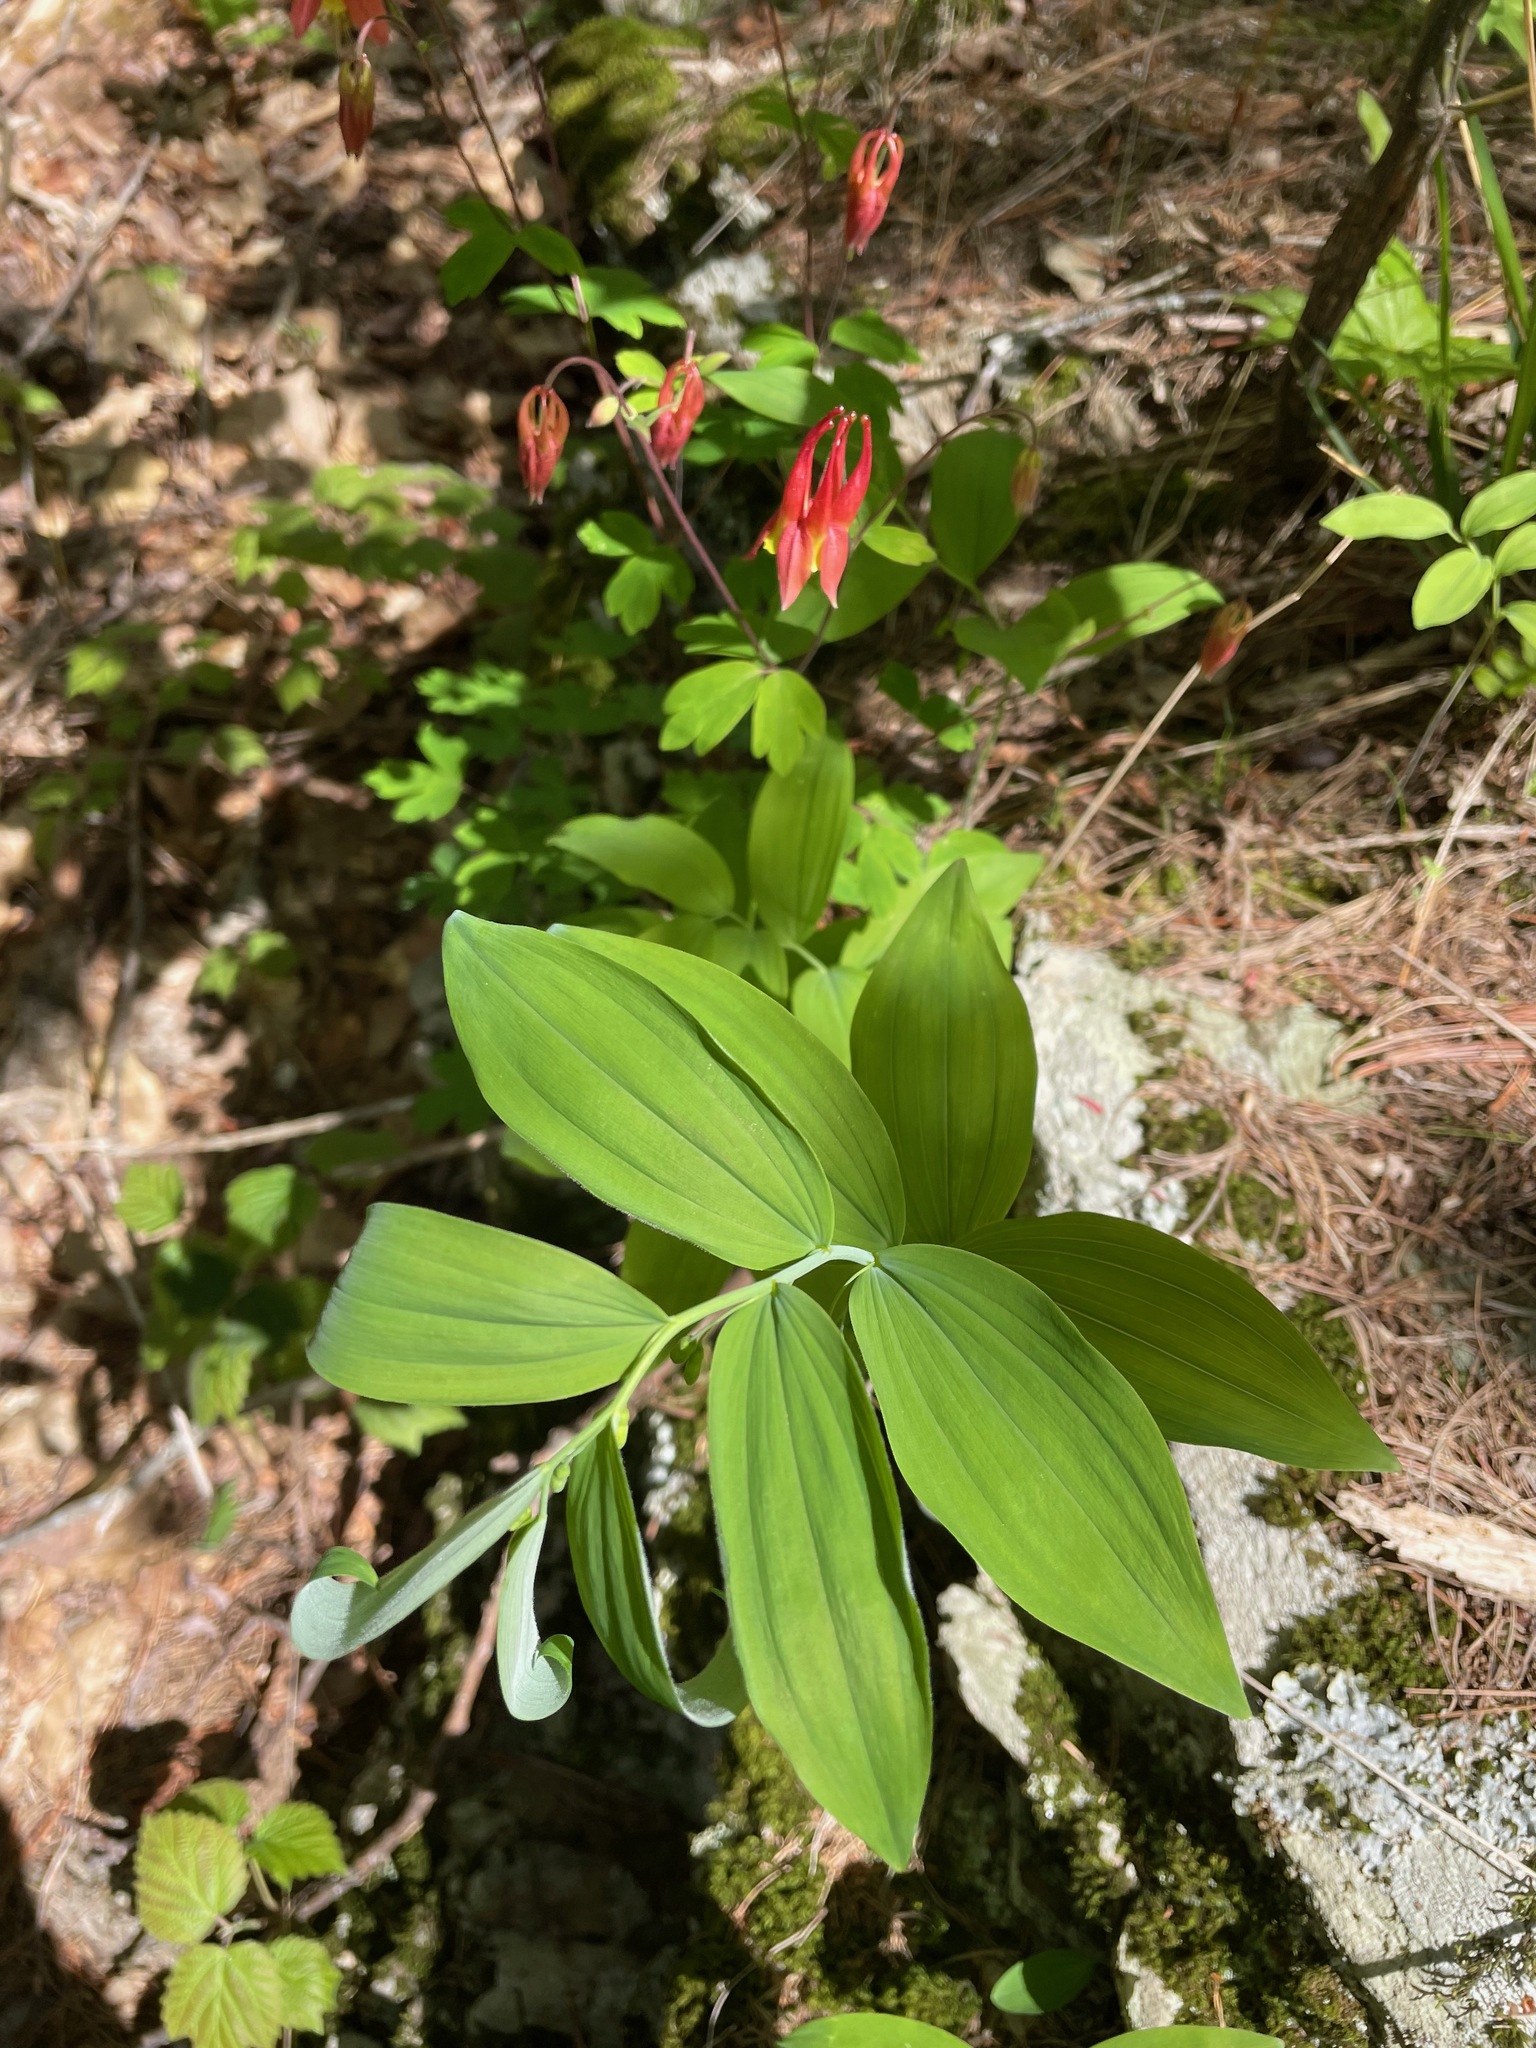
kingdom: Plantae
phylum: Tracheophyta
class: Liliopsida
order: Asparagales
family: Asparagaceae
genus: Polygonatum
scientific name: Polygonatum pubescens
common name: Downy solomon's seal
